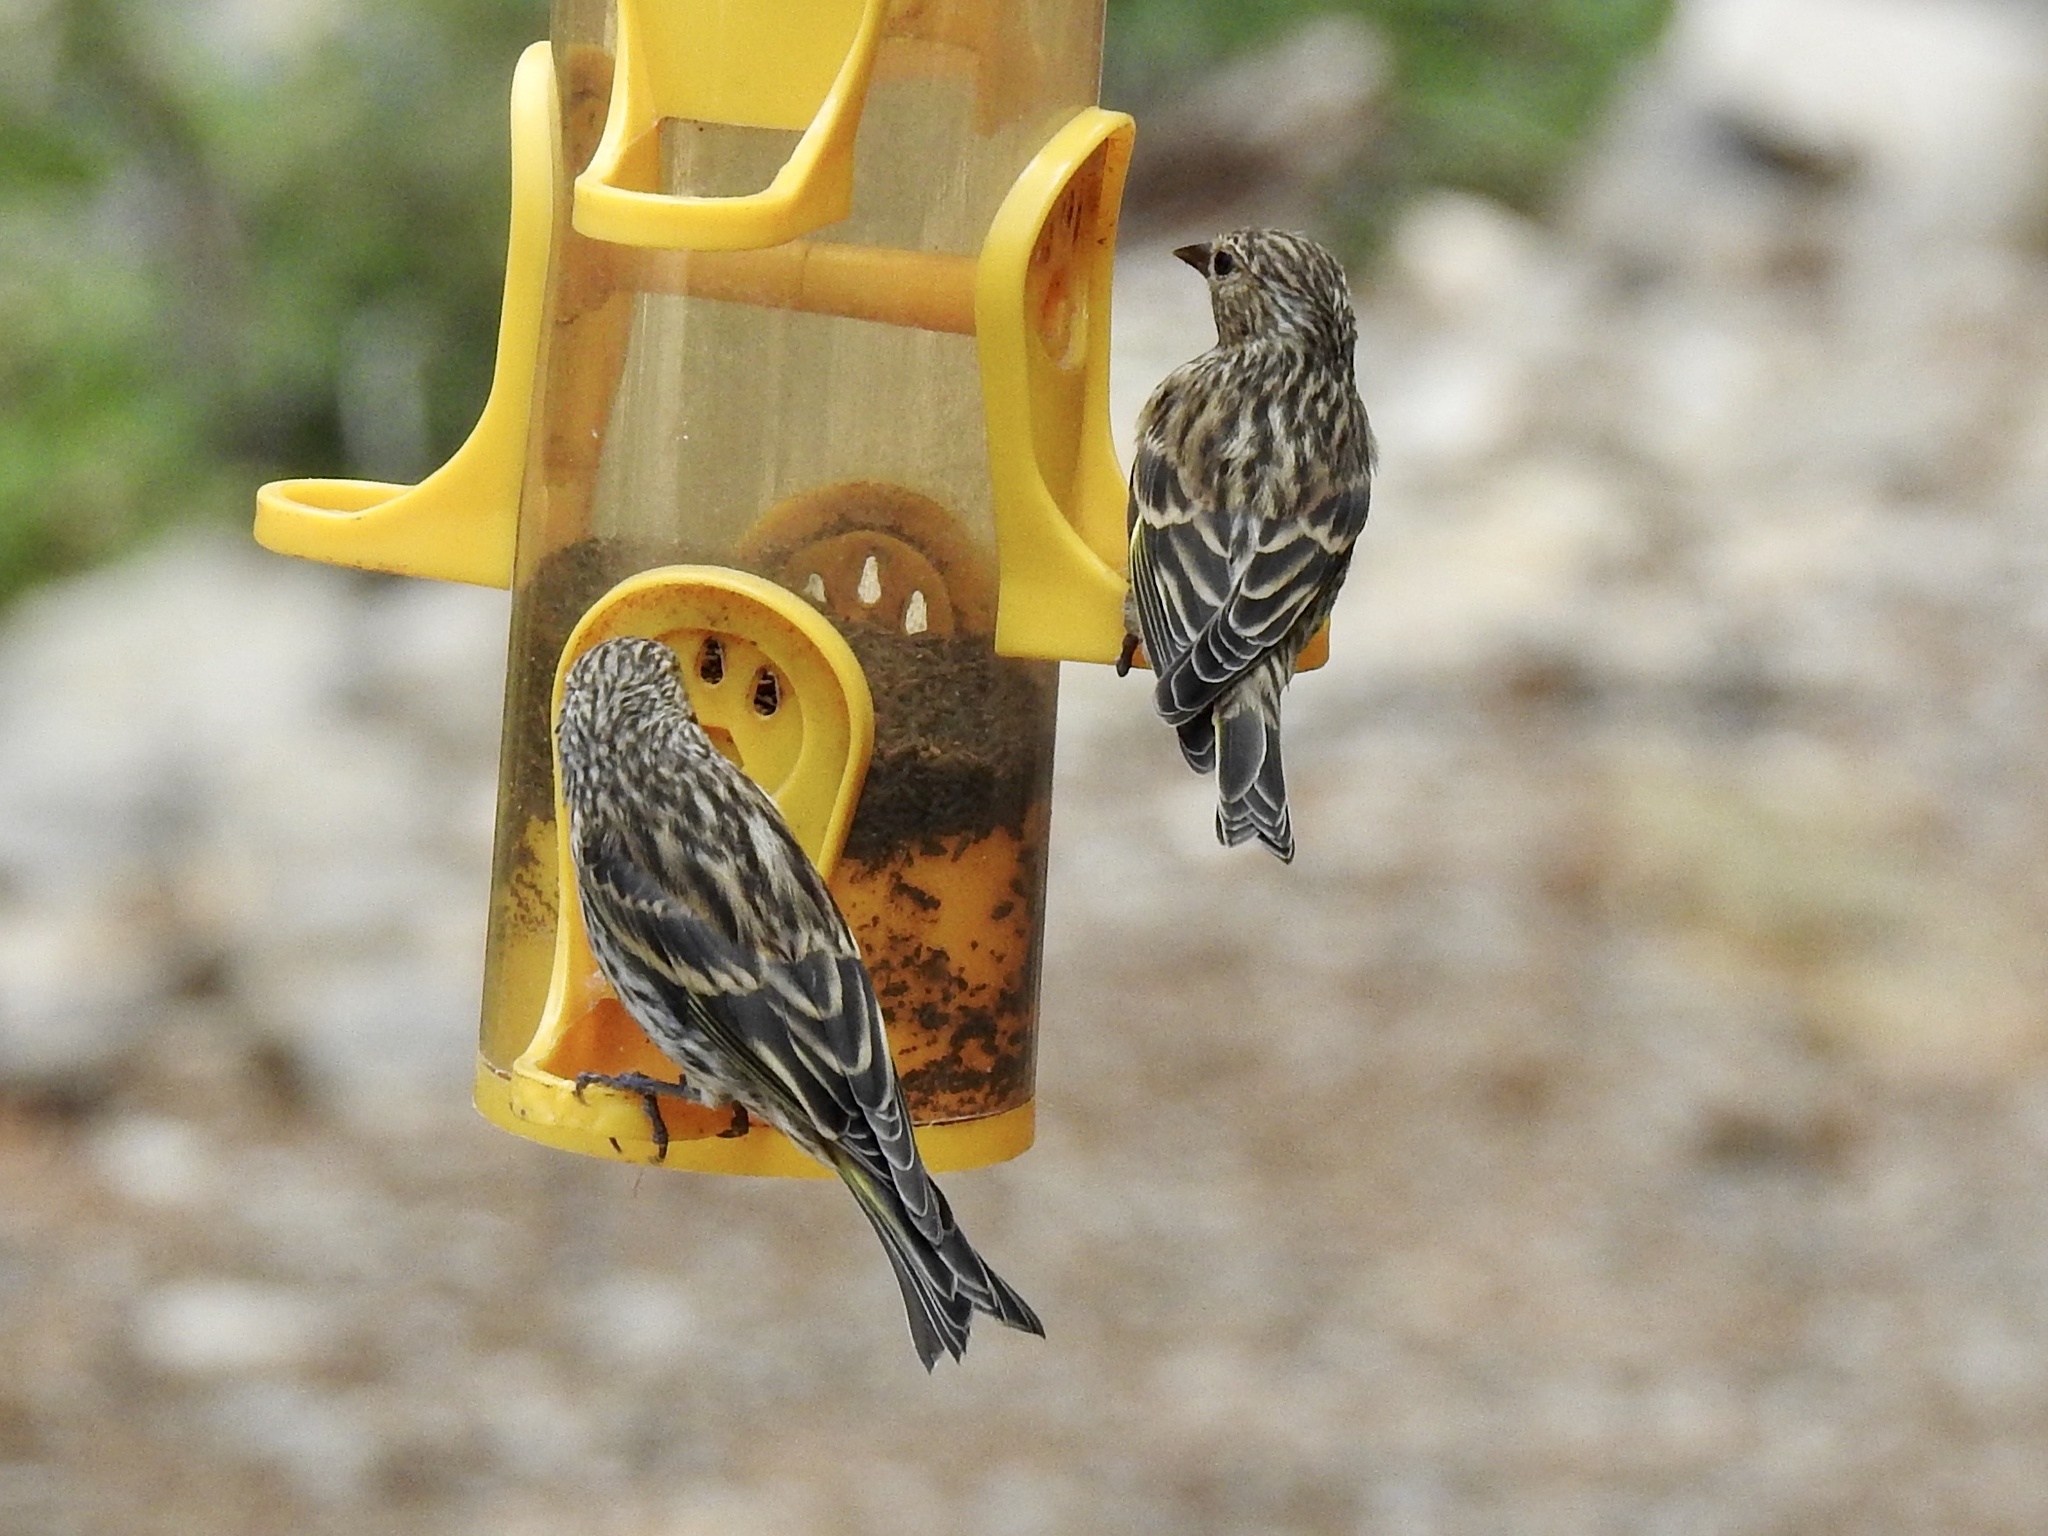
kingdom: Animalia
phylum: Chordata
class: Aves
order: Passeriformes
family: Fringillidae
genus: Spinus
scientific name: Spinus pinus
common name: Pine siskin
